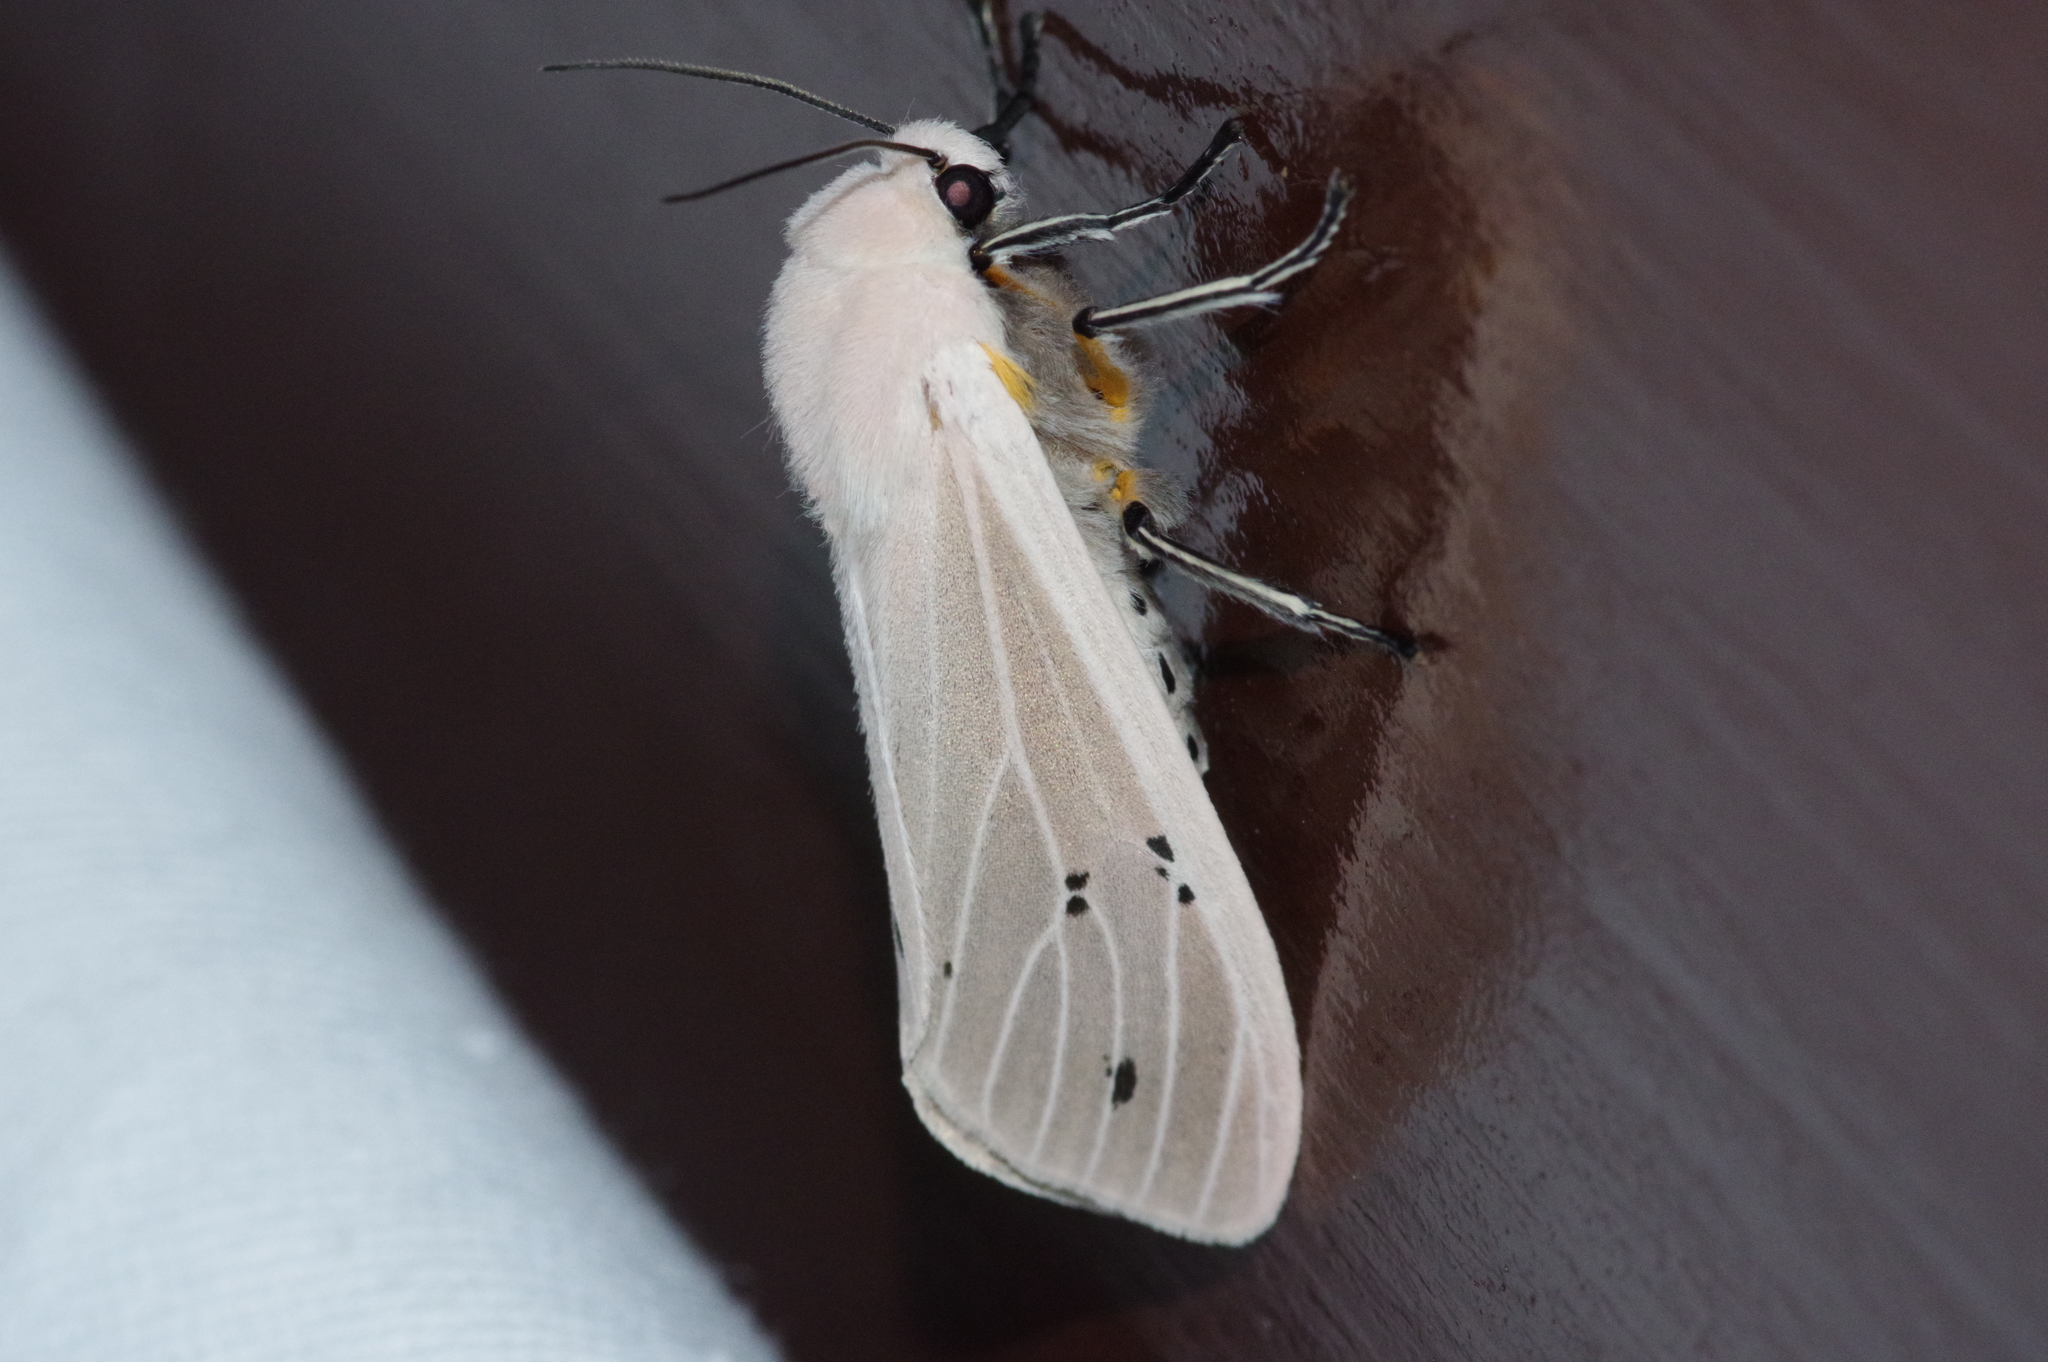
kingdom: Animalia
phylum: Arthropoda
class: Insecta
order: Lepidoptera
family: Erebidae
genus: Creatonotos
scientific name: Creatonotos transiens
